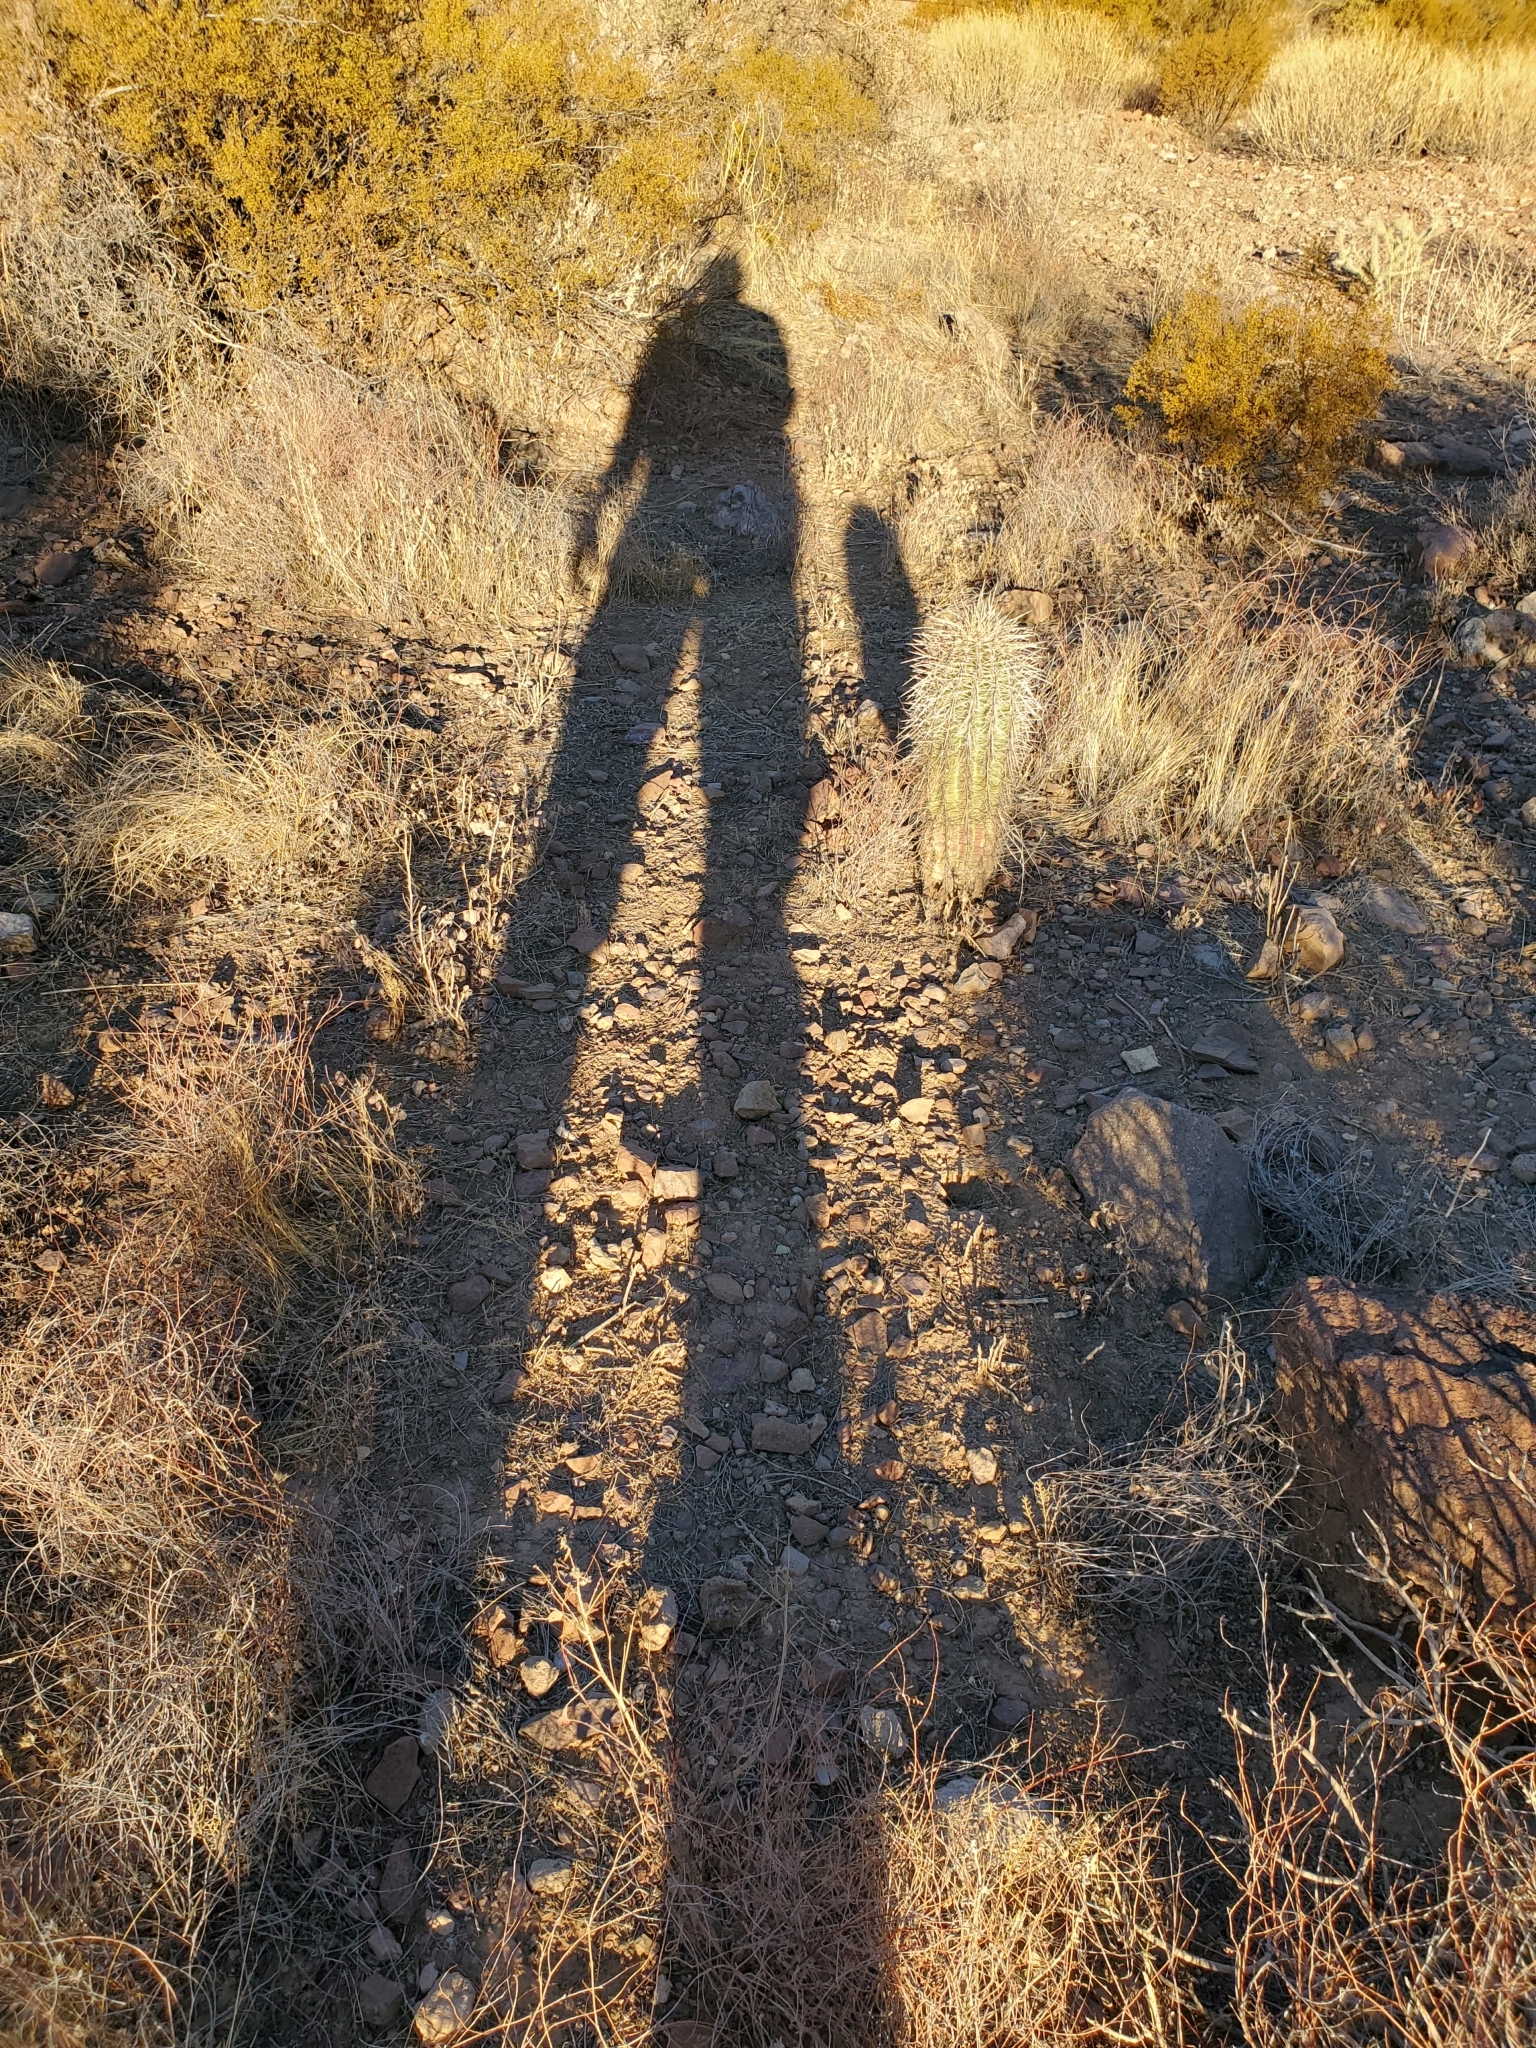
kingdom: Plantae
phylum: Tracheophyta
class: Magnoliopsida
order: Caryophyllales
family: Cactaceae
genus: Carnegiea
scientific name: Carnegiea gigantea
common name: Saguaro
